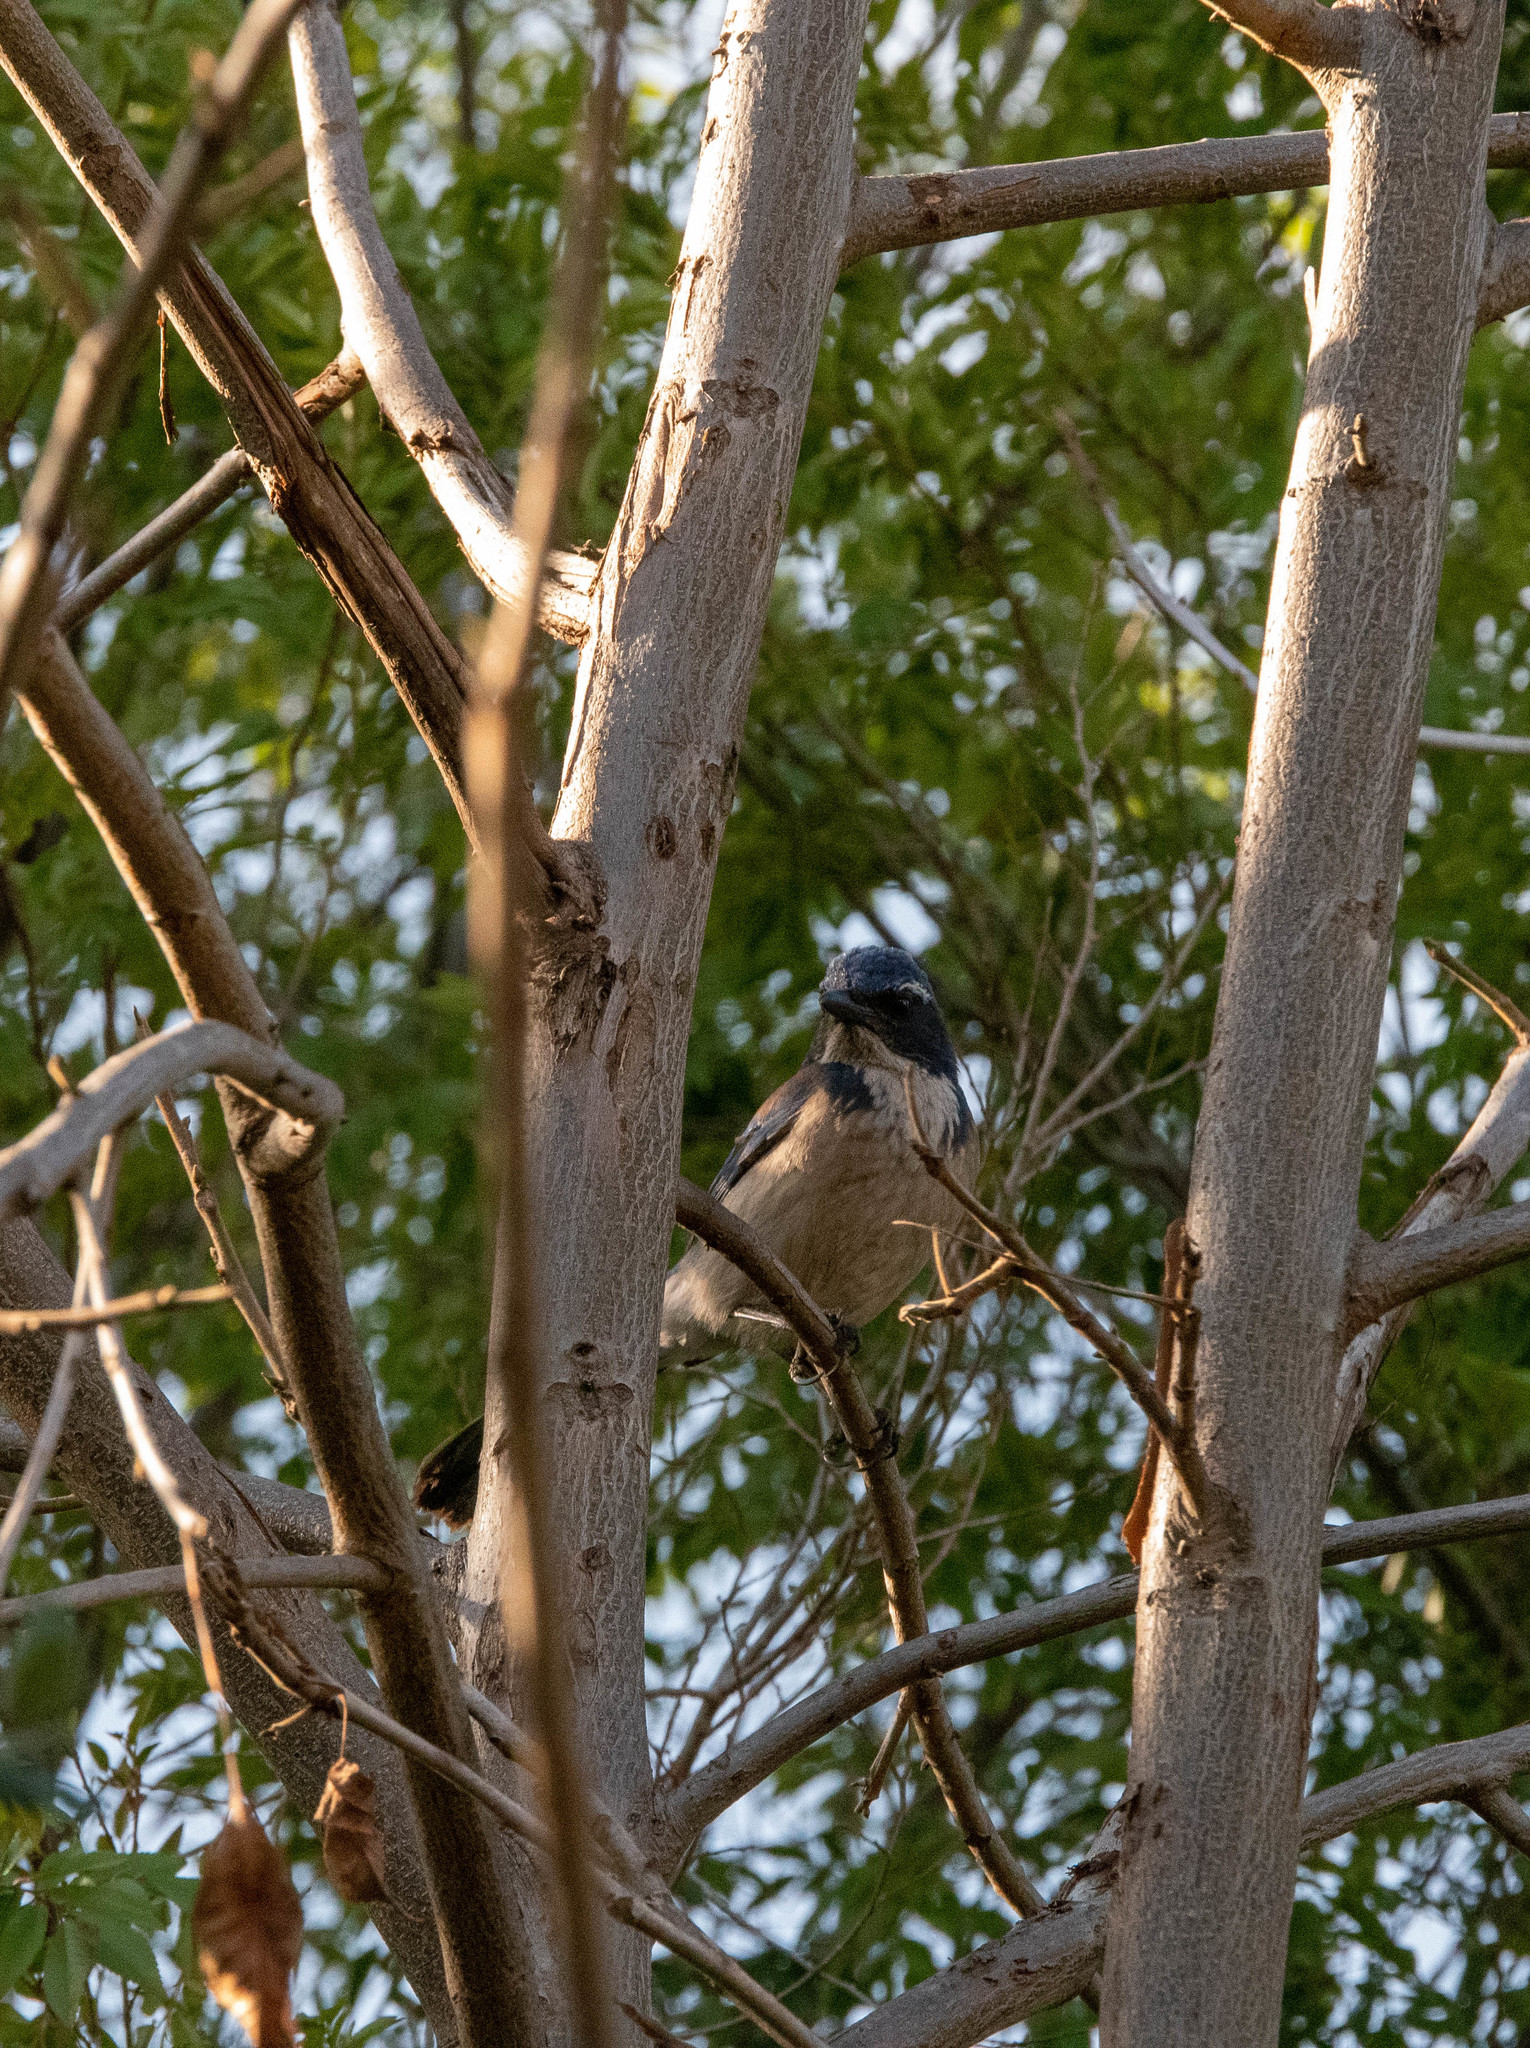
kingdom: Animalia
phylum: Chordata
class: Aves
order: Passeriformes
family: Corvidae
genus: Aphelocoma
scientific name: Aphelocoma californica
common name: California scrub-jay
